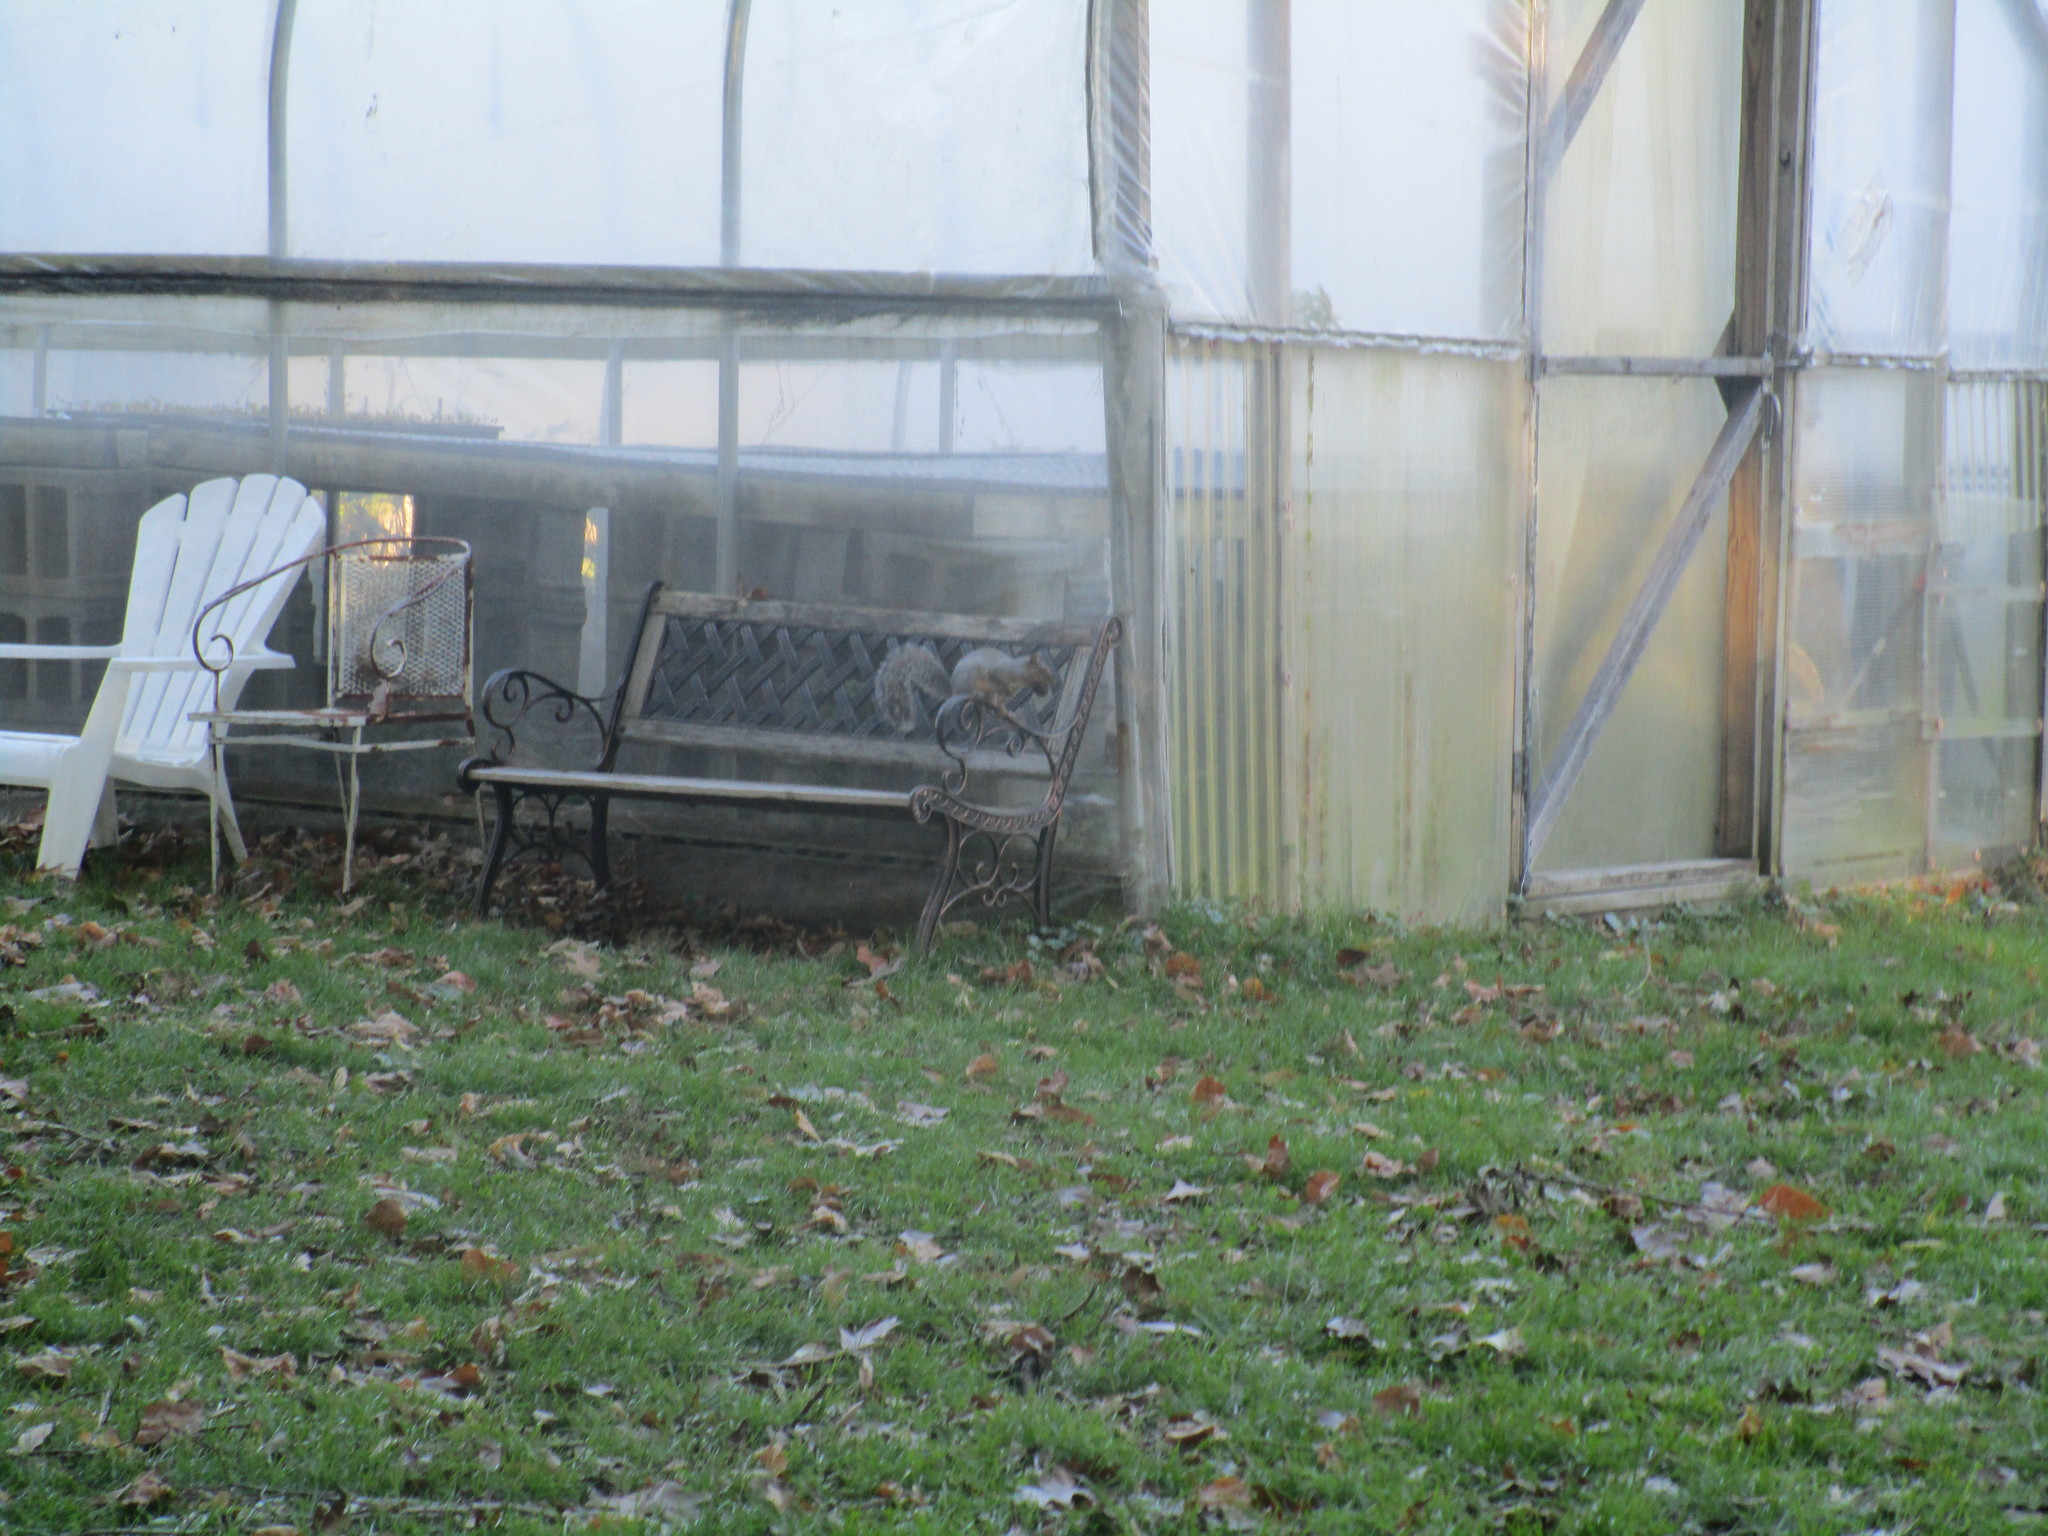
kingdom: Animalia
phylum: Chordata
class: Mammalia
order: Rodentia
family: Sciuridae
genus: Sciurus
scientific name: Sciurus carolinensis
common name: Eastern gray squirrel
